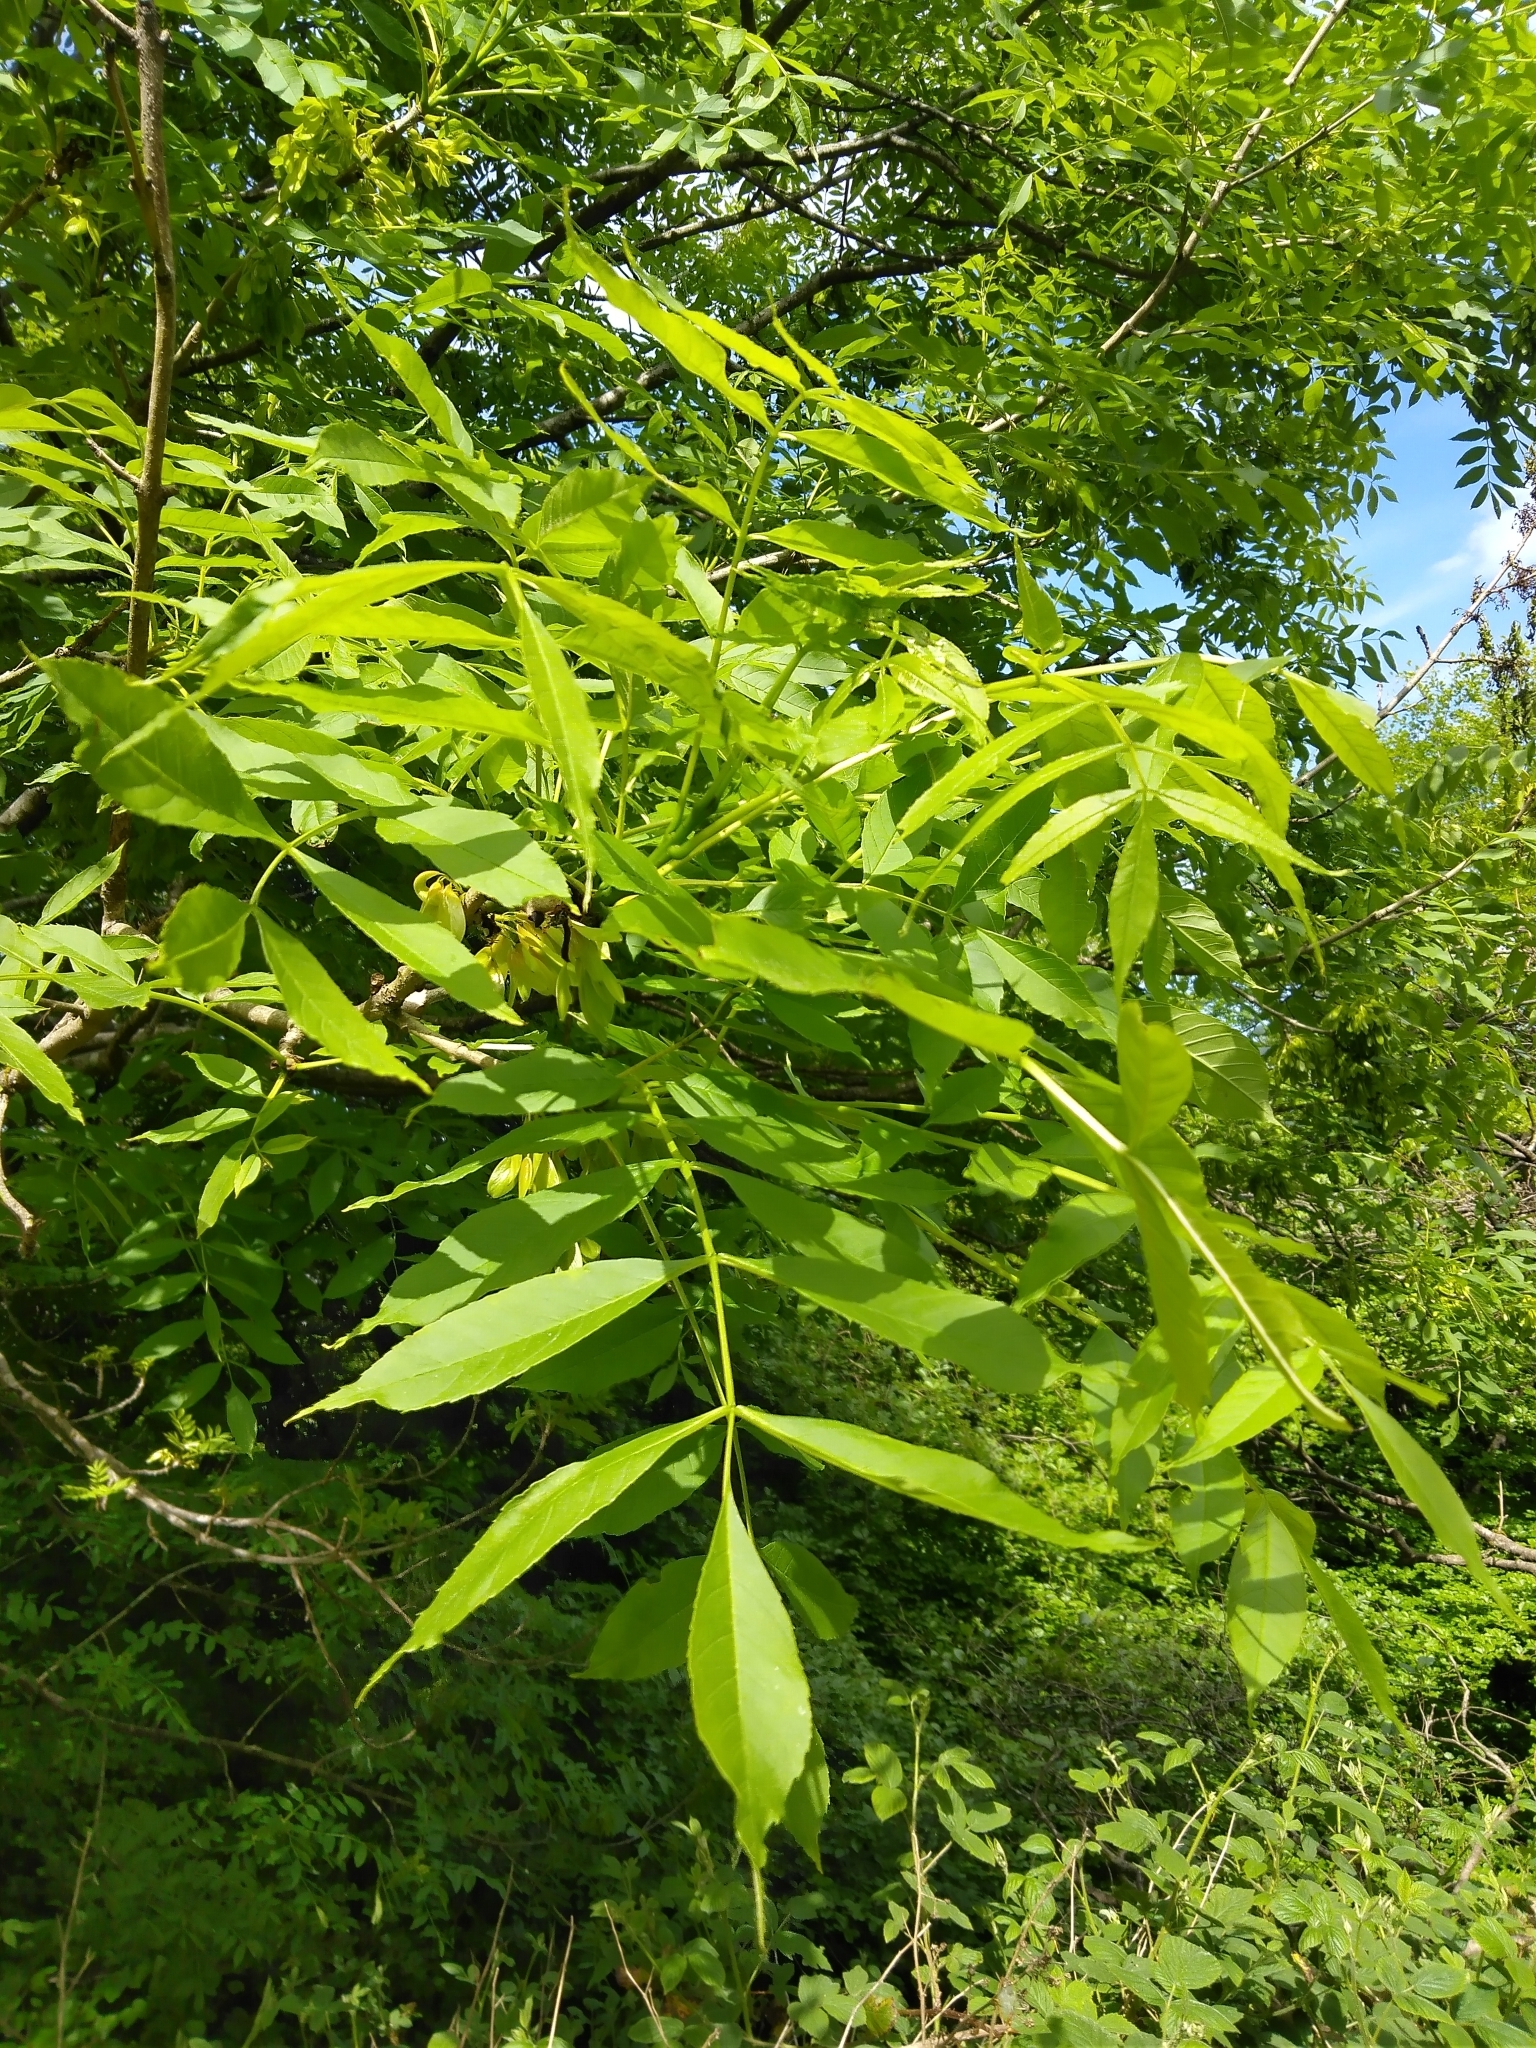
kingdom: Plantae
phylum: Tracheophyta
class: Magnoliopsida
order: Lamiales
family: Oleaceae
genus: Fraxinus
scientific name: Fraxinus excelsior
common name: European ash
